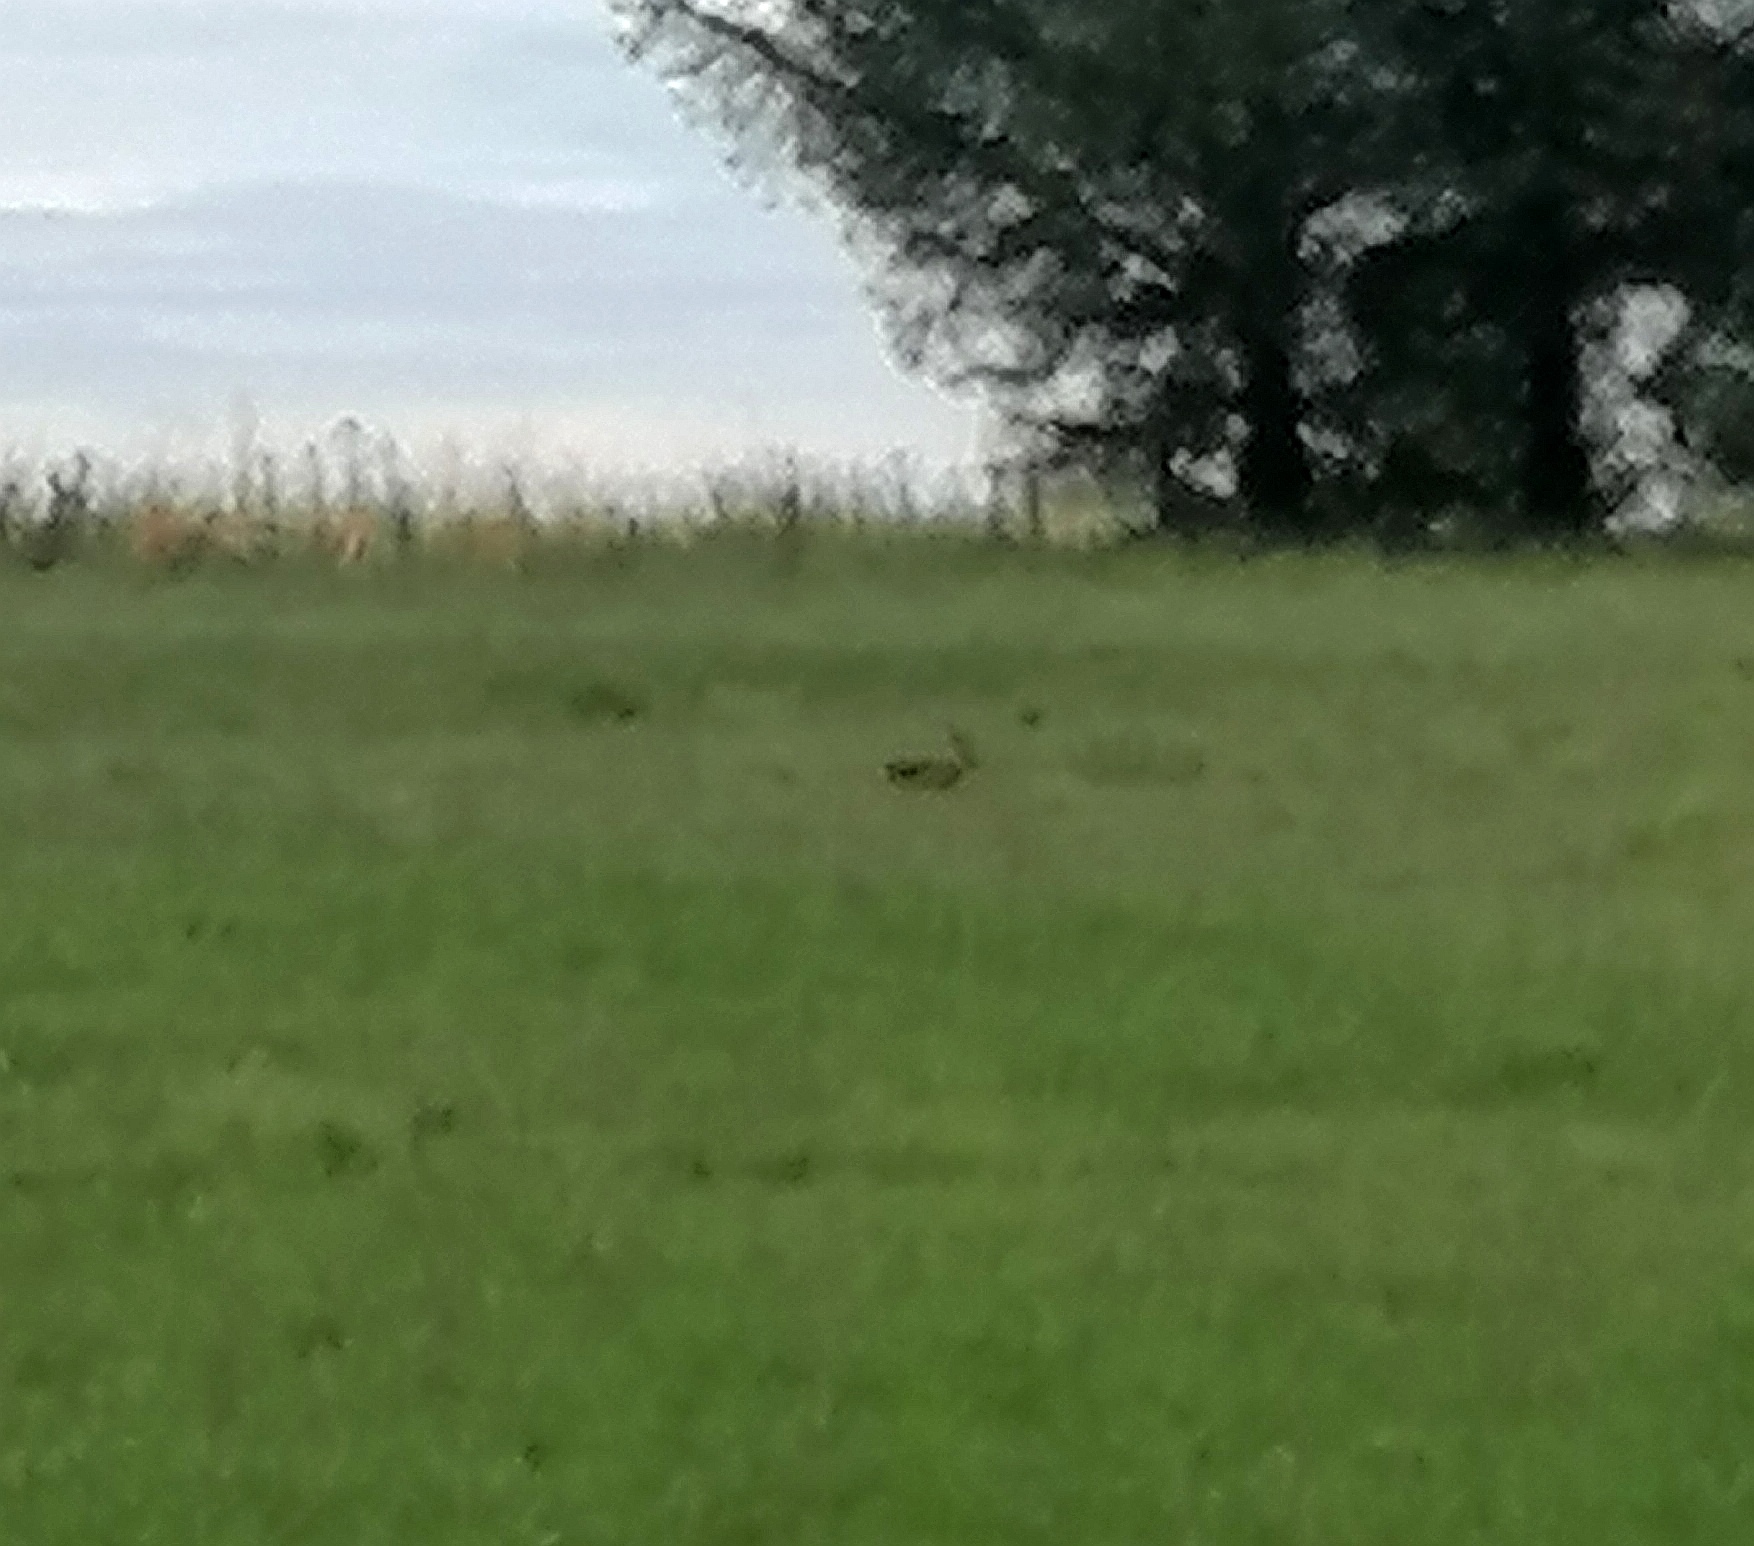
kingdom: Animalia
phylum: Chordata
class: Mammalia
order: Lagomorpha
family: Leporidae
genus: Lepus
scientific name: Lepus europaeus
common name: European hare
